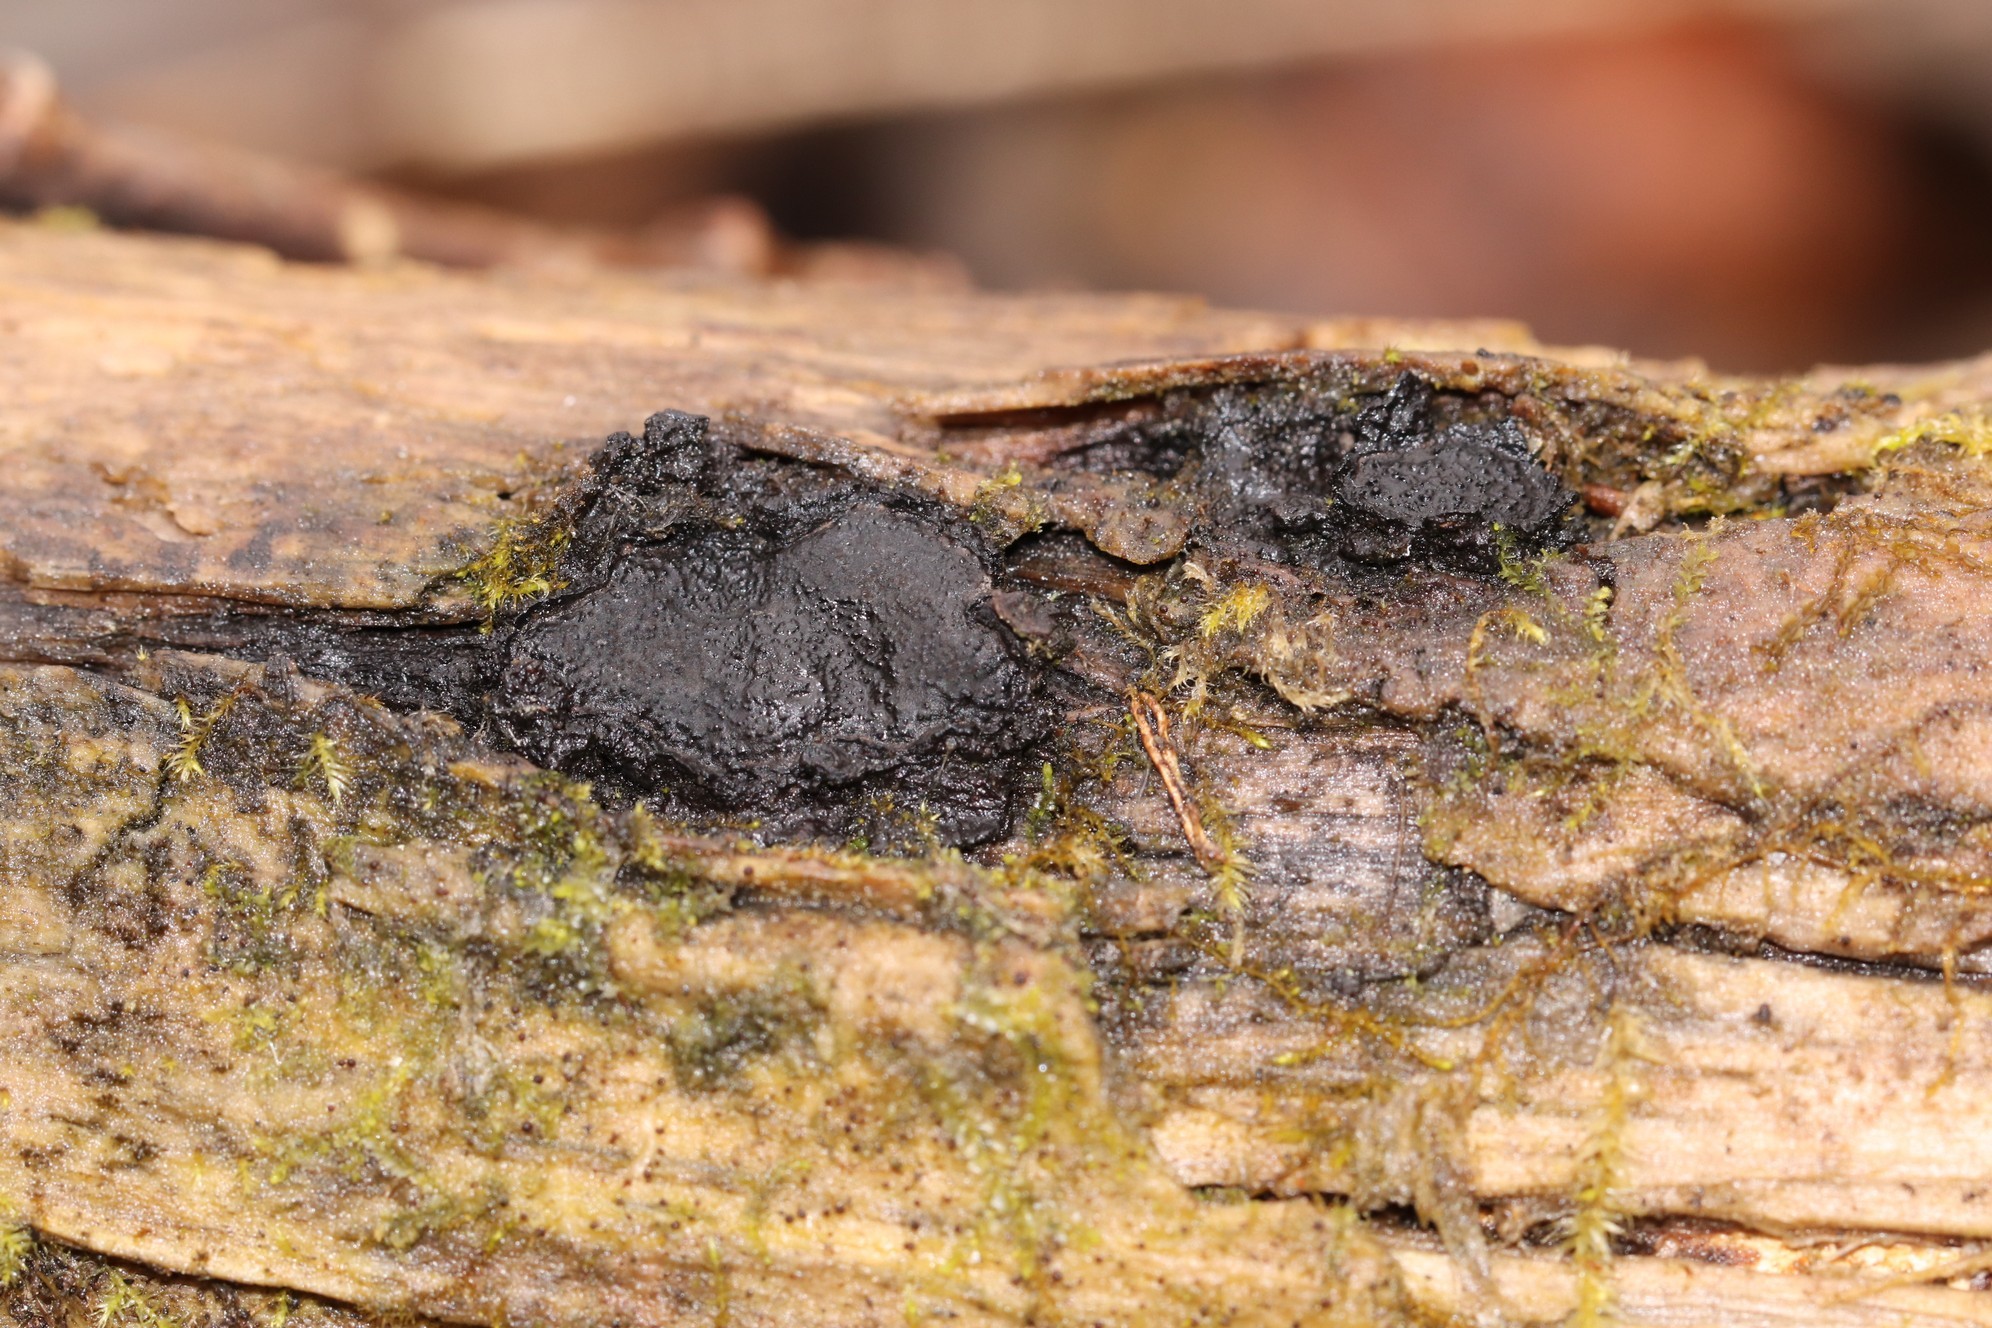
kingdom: Fungi
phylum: Ascomycota
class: Sordariomycetes
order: Xylariales
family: Graphostromataceae
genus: Biscogniauxia
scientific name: Biscogniauxia repanda
